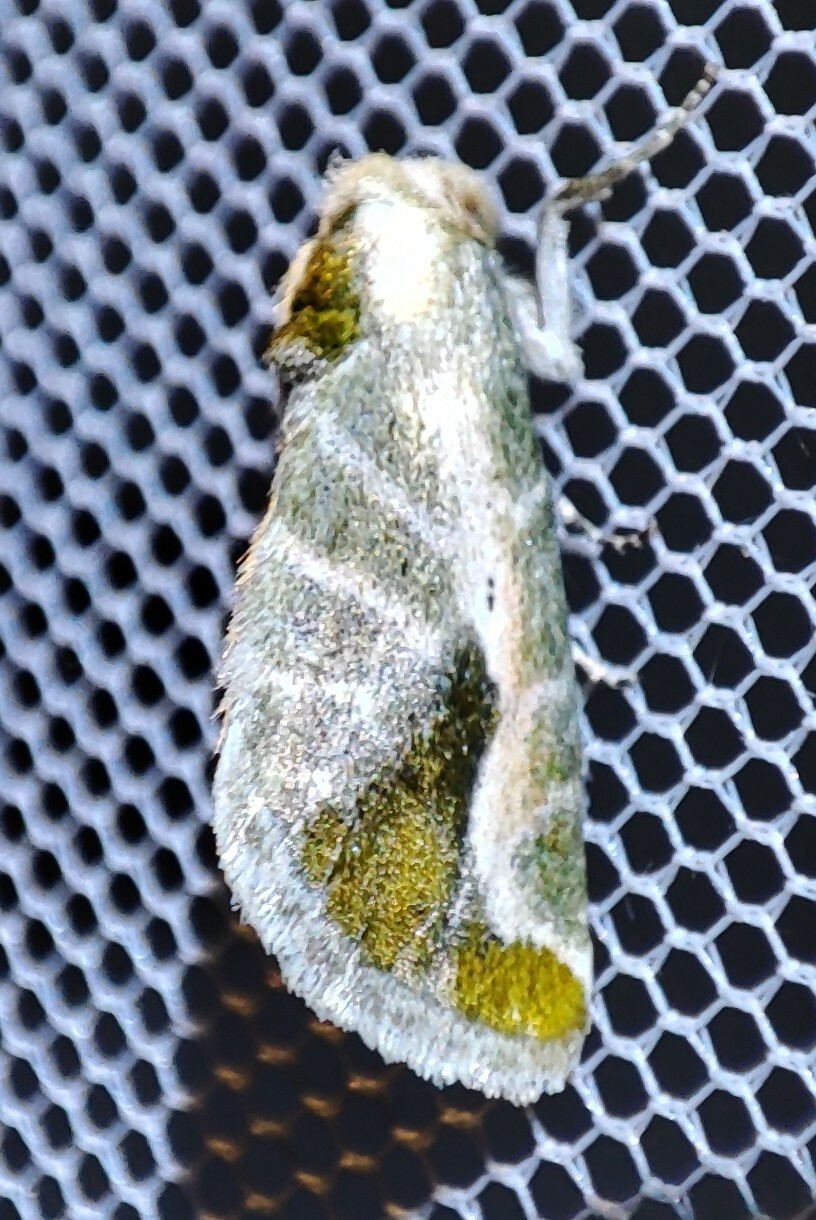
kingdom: Animalia
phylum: Arthropoda
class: Insecta
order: Lepidoptera
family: Noctuidae
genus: Autoba
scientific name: Autoba admota
